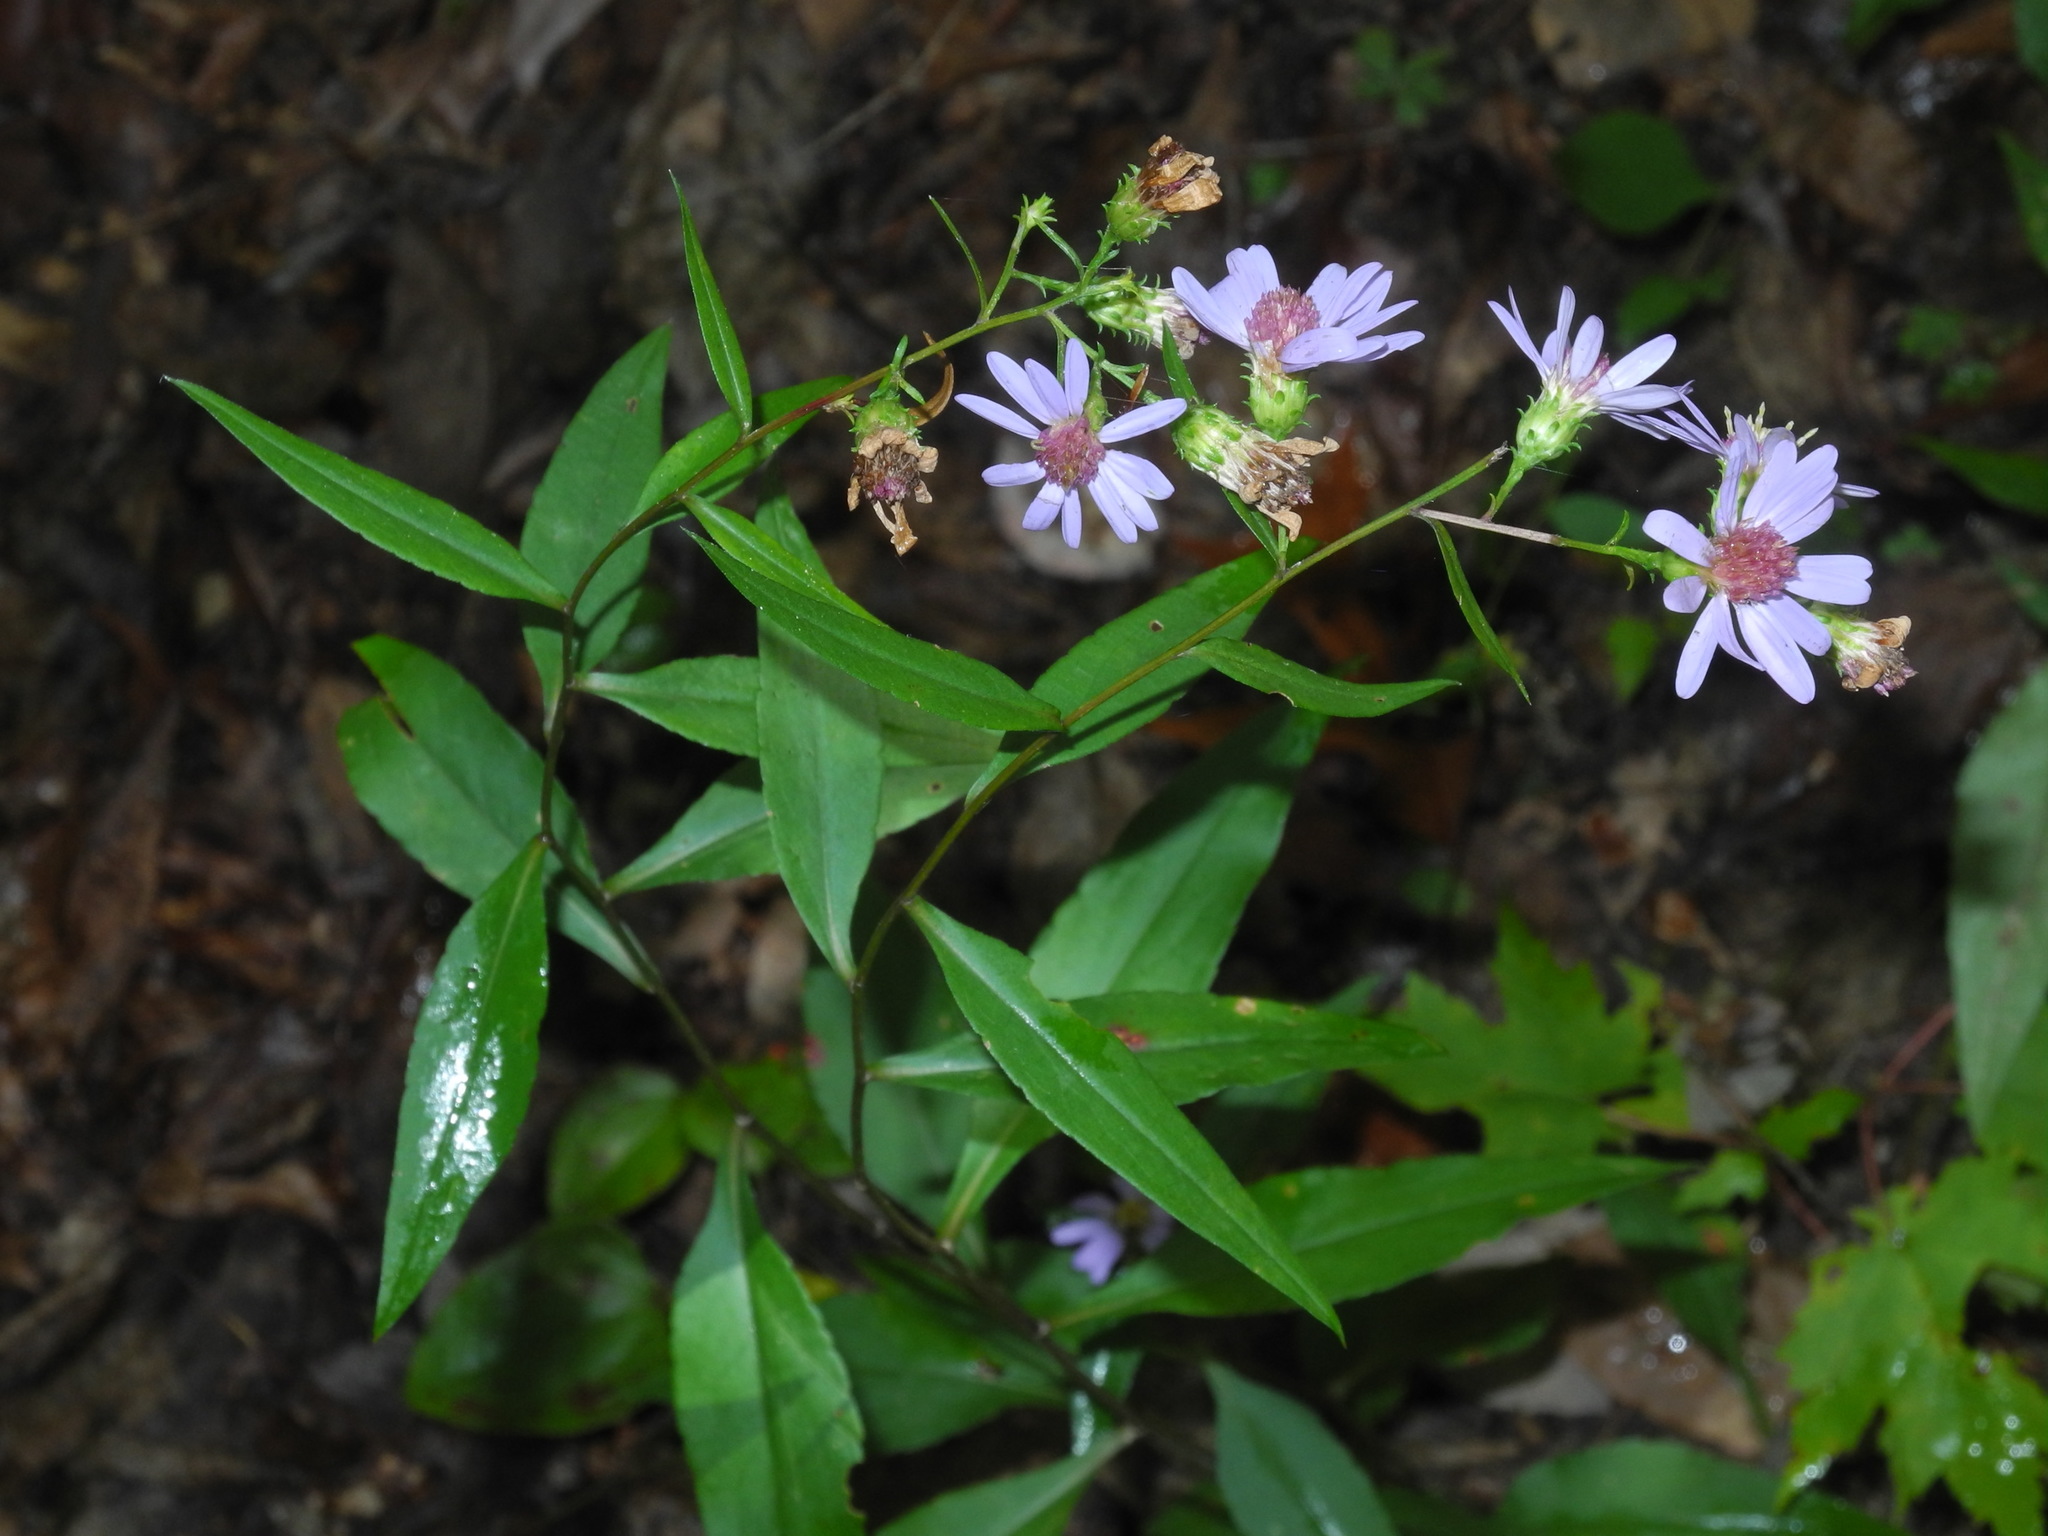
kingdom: Plantae
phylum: Tracheophyta
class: Magnoliopsida
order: Asterales
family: Asteraceae
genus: Symphyotrichum
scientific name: Symphyotrichum retroflexum
